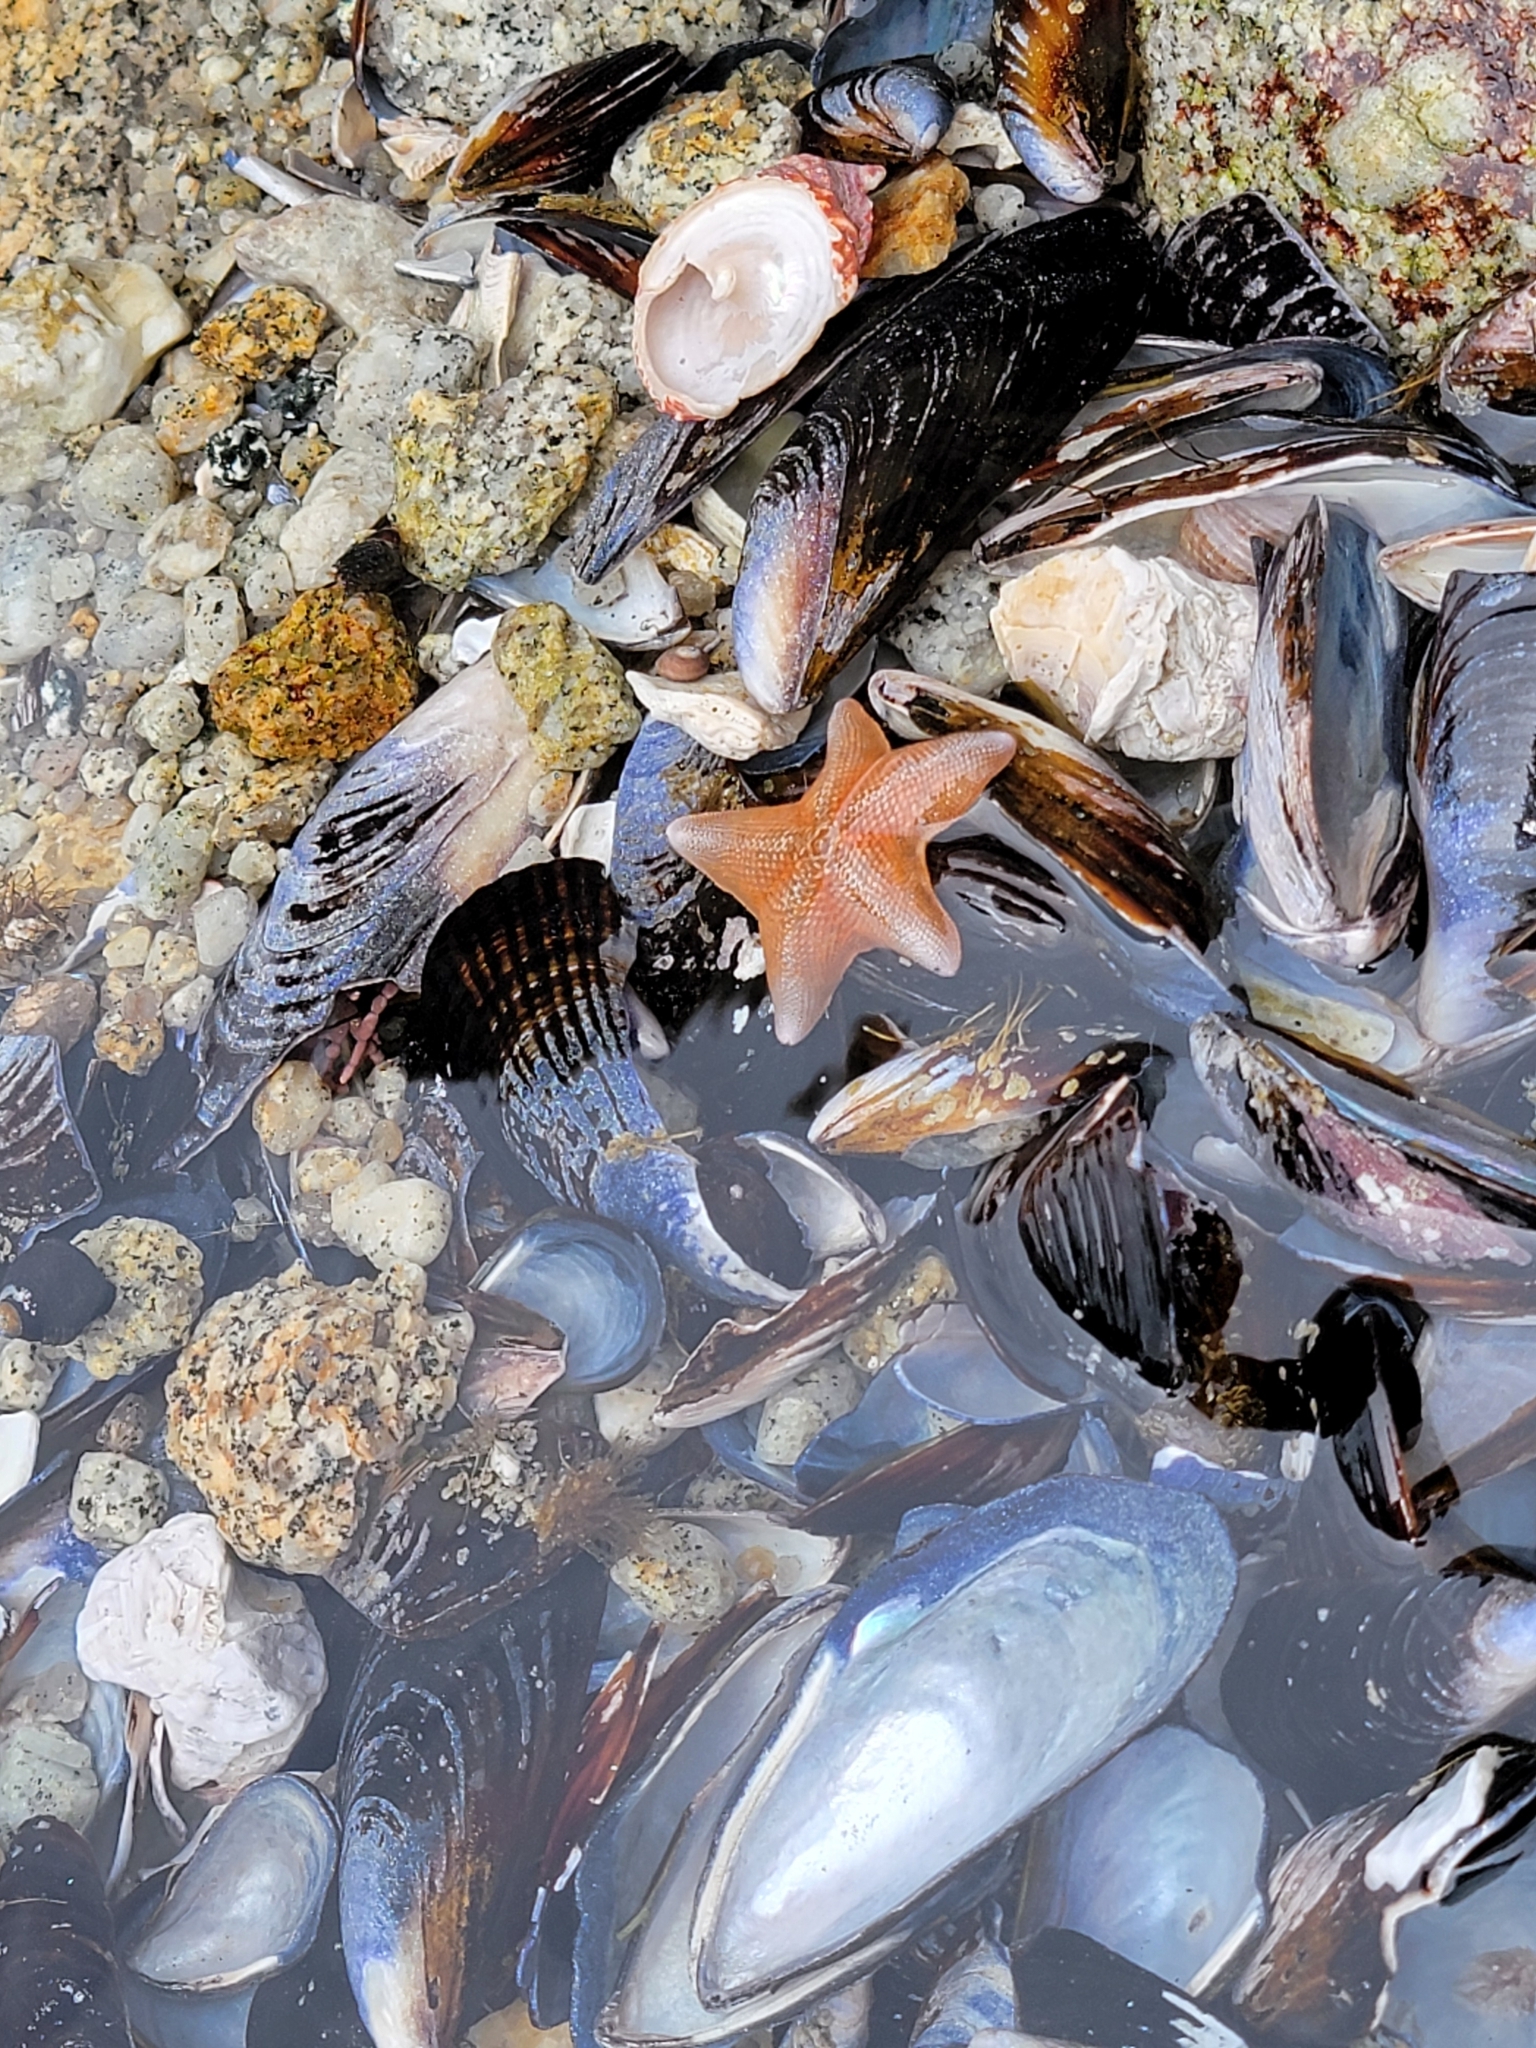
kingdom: Animalia
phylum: Echinodermata
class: Asteroidea
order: Valvatida
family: Asterinidae
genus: Patiria
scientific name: Patiria miniata
